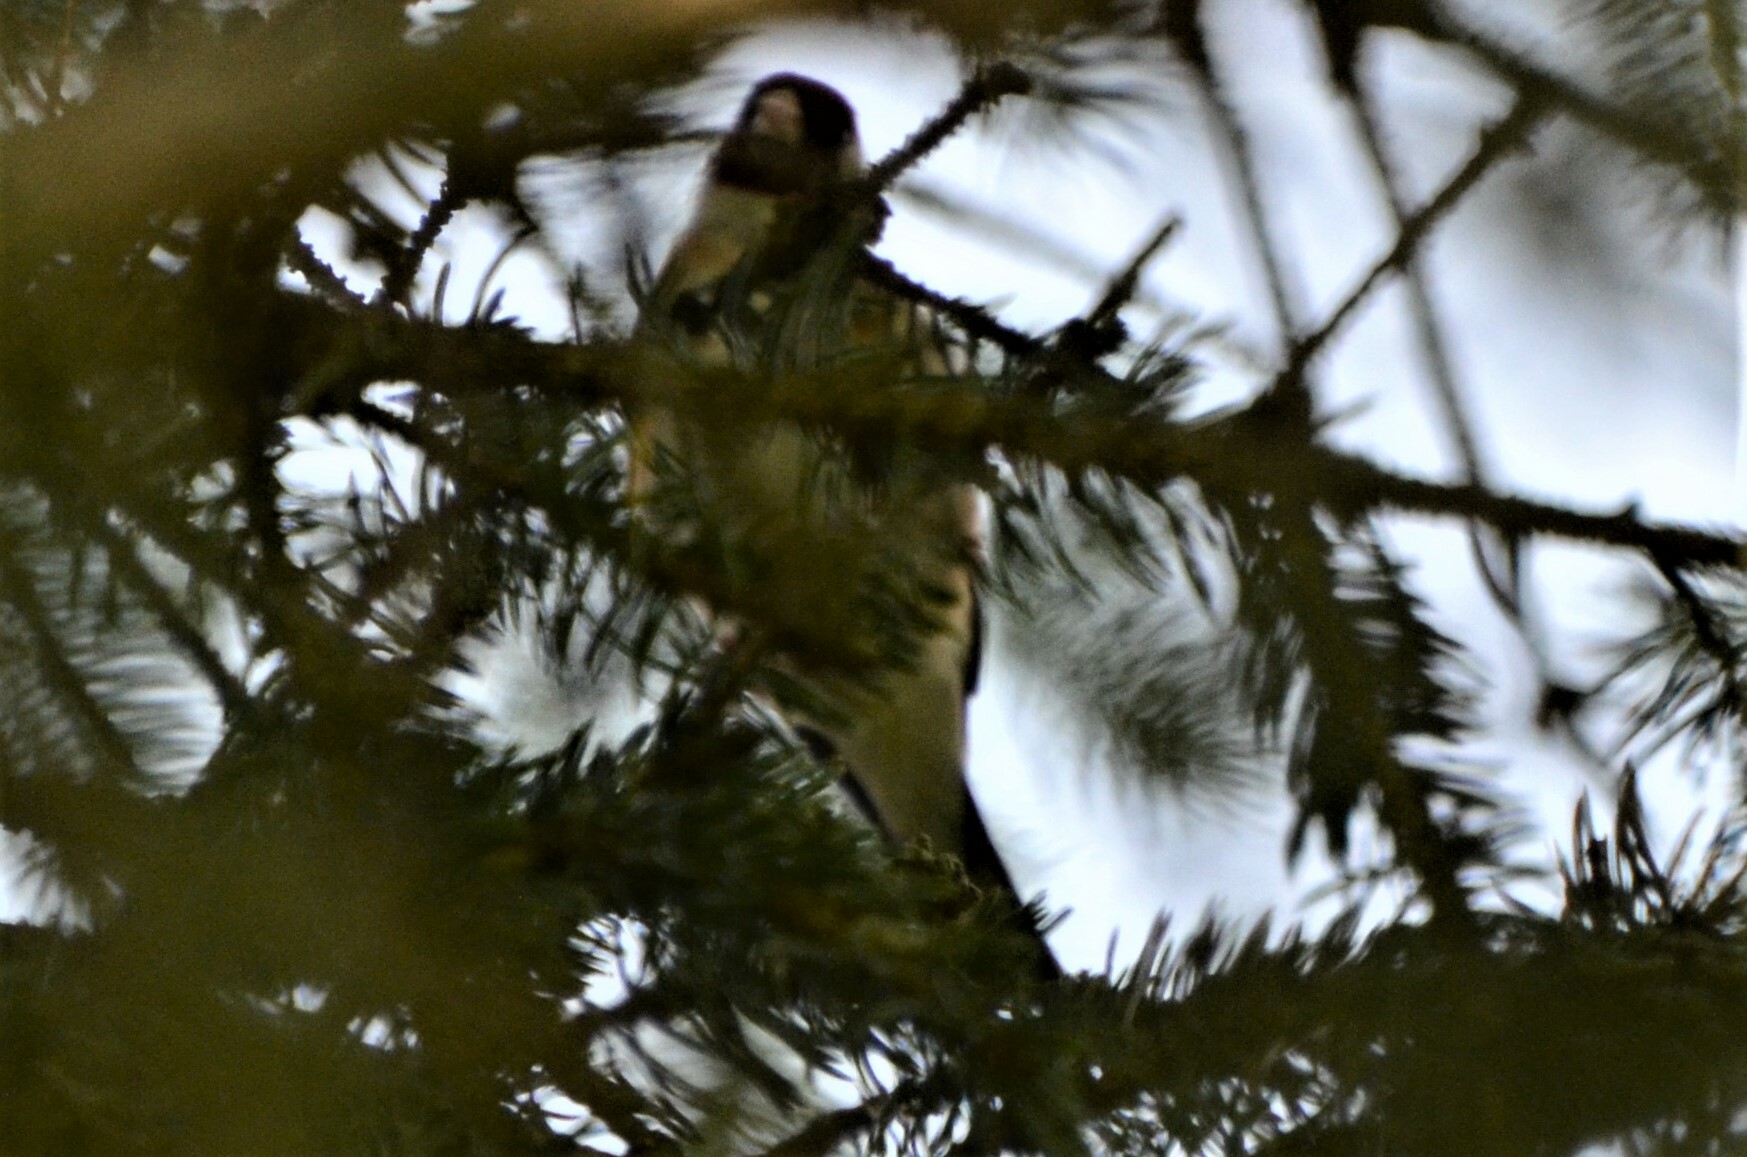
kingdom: Animalia
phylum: Chordata
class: Aves
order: Passeriformes
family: Fringillidae
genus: Carduelis
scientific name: Carduelis carduelis
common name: European goldfinch
